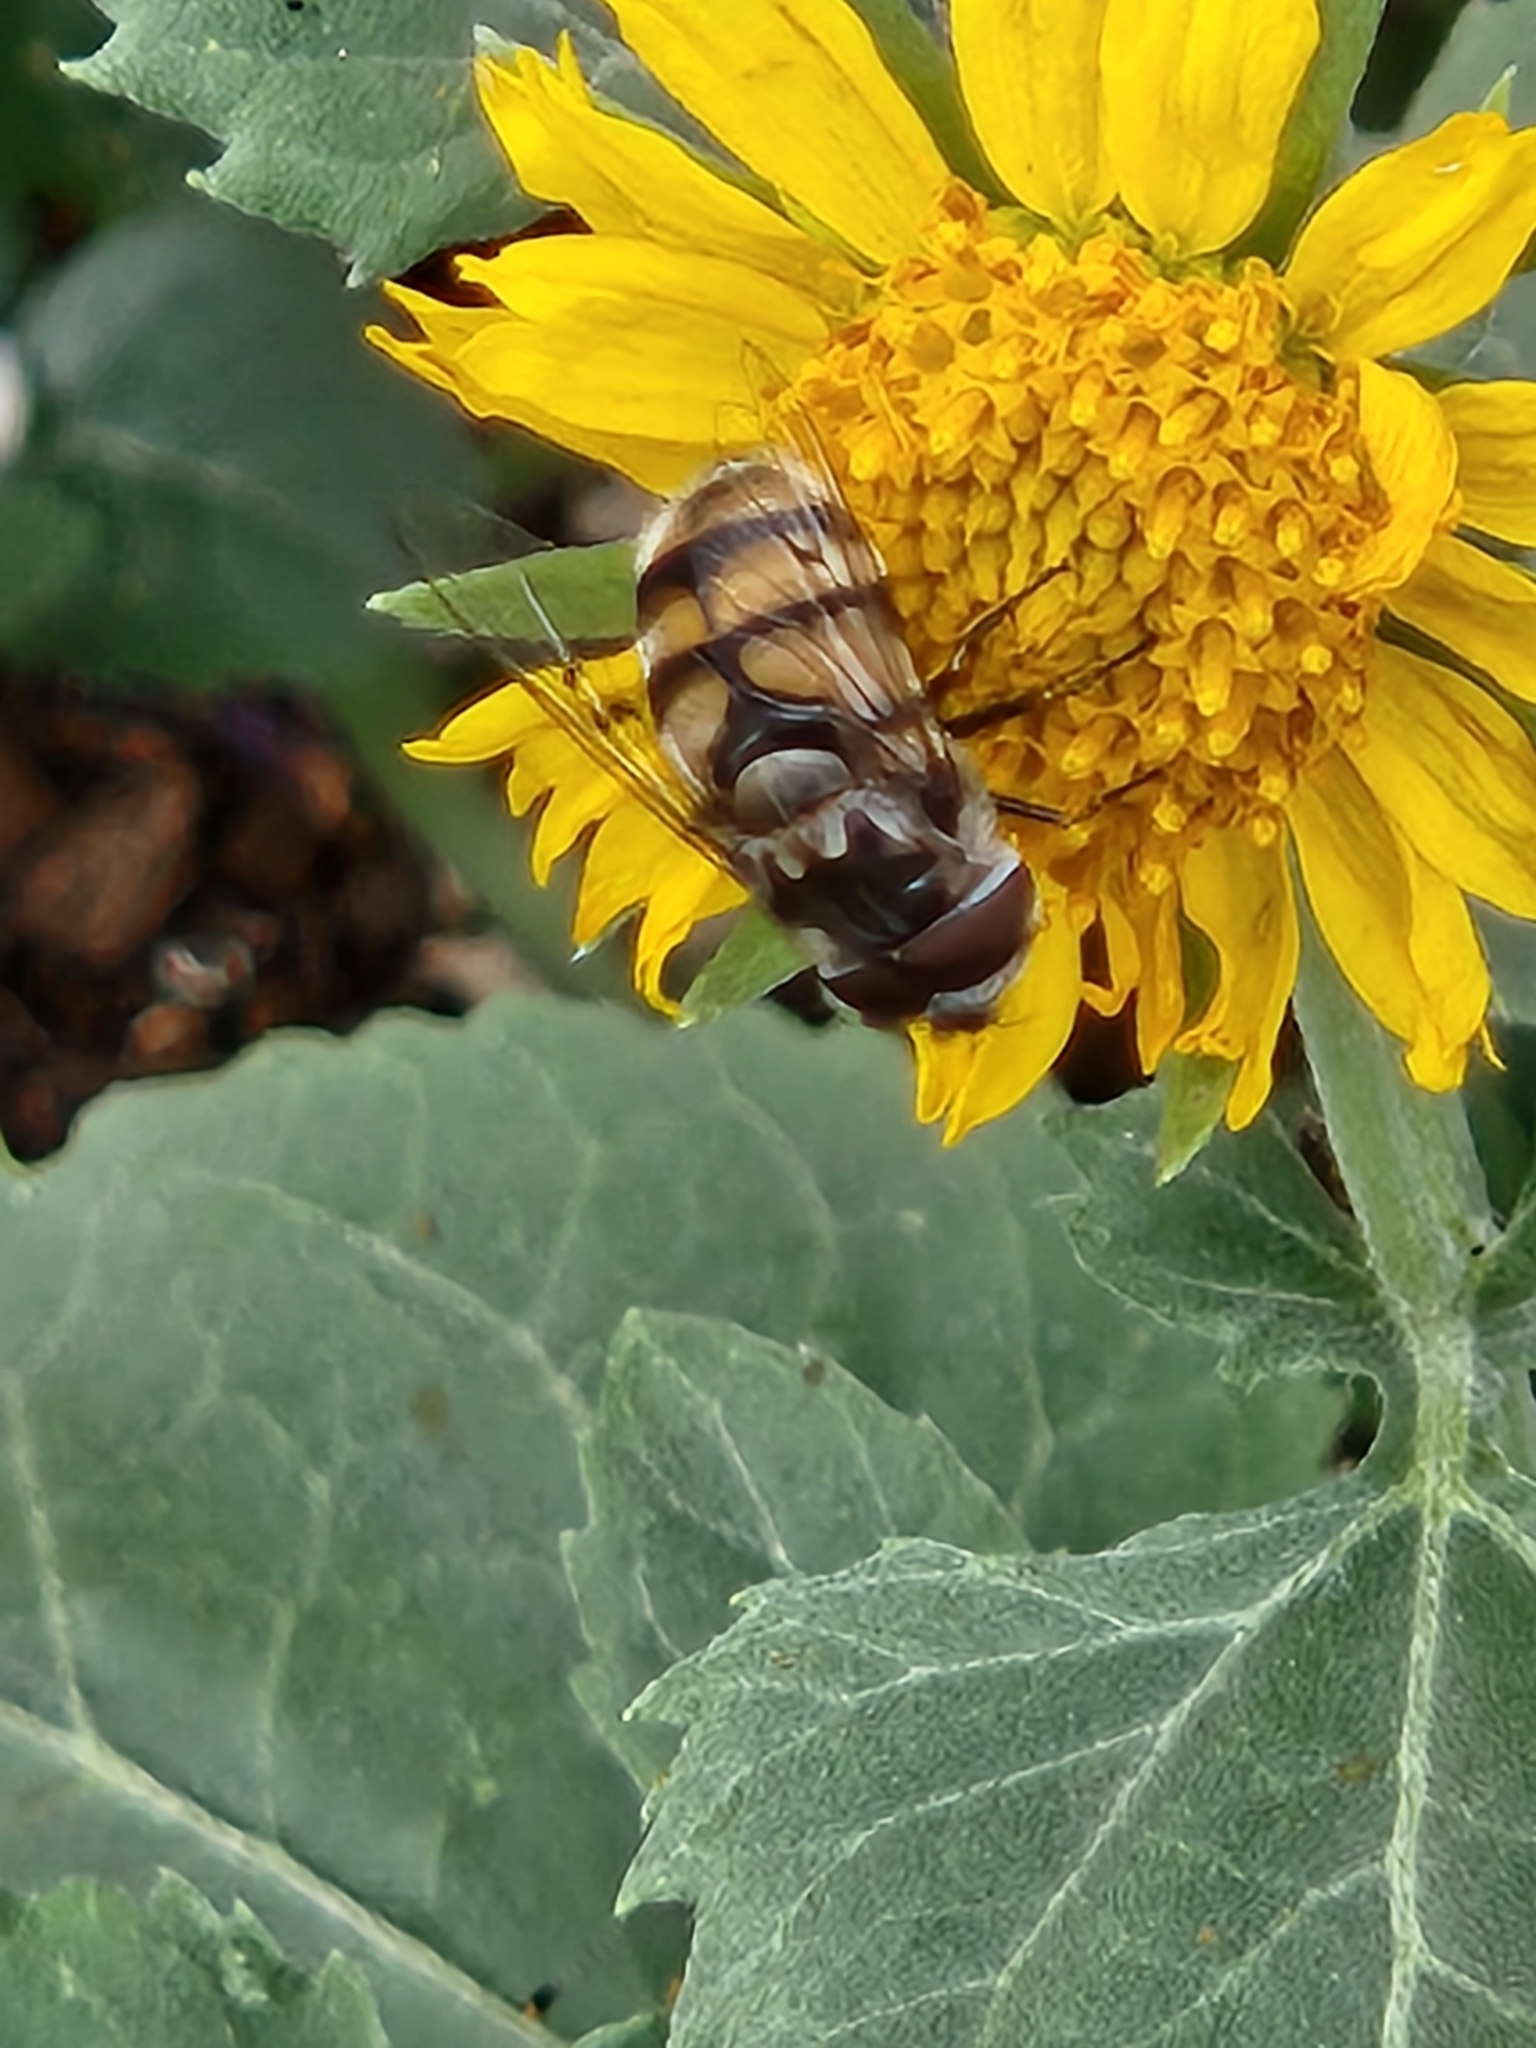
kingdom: Animalia
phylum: Arthropoda
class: Insecta
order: Diptera
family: Syrphidae
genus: Copestylum
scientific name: Copestylum avidum
